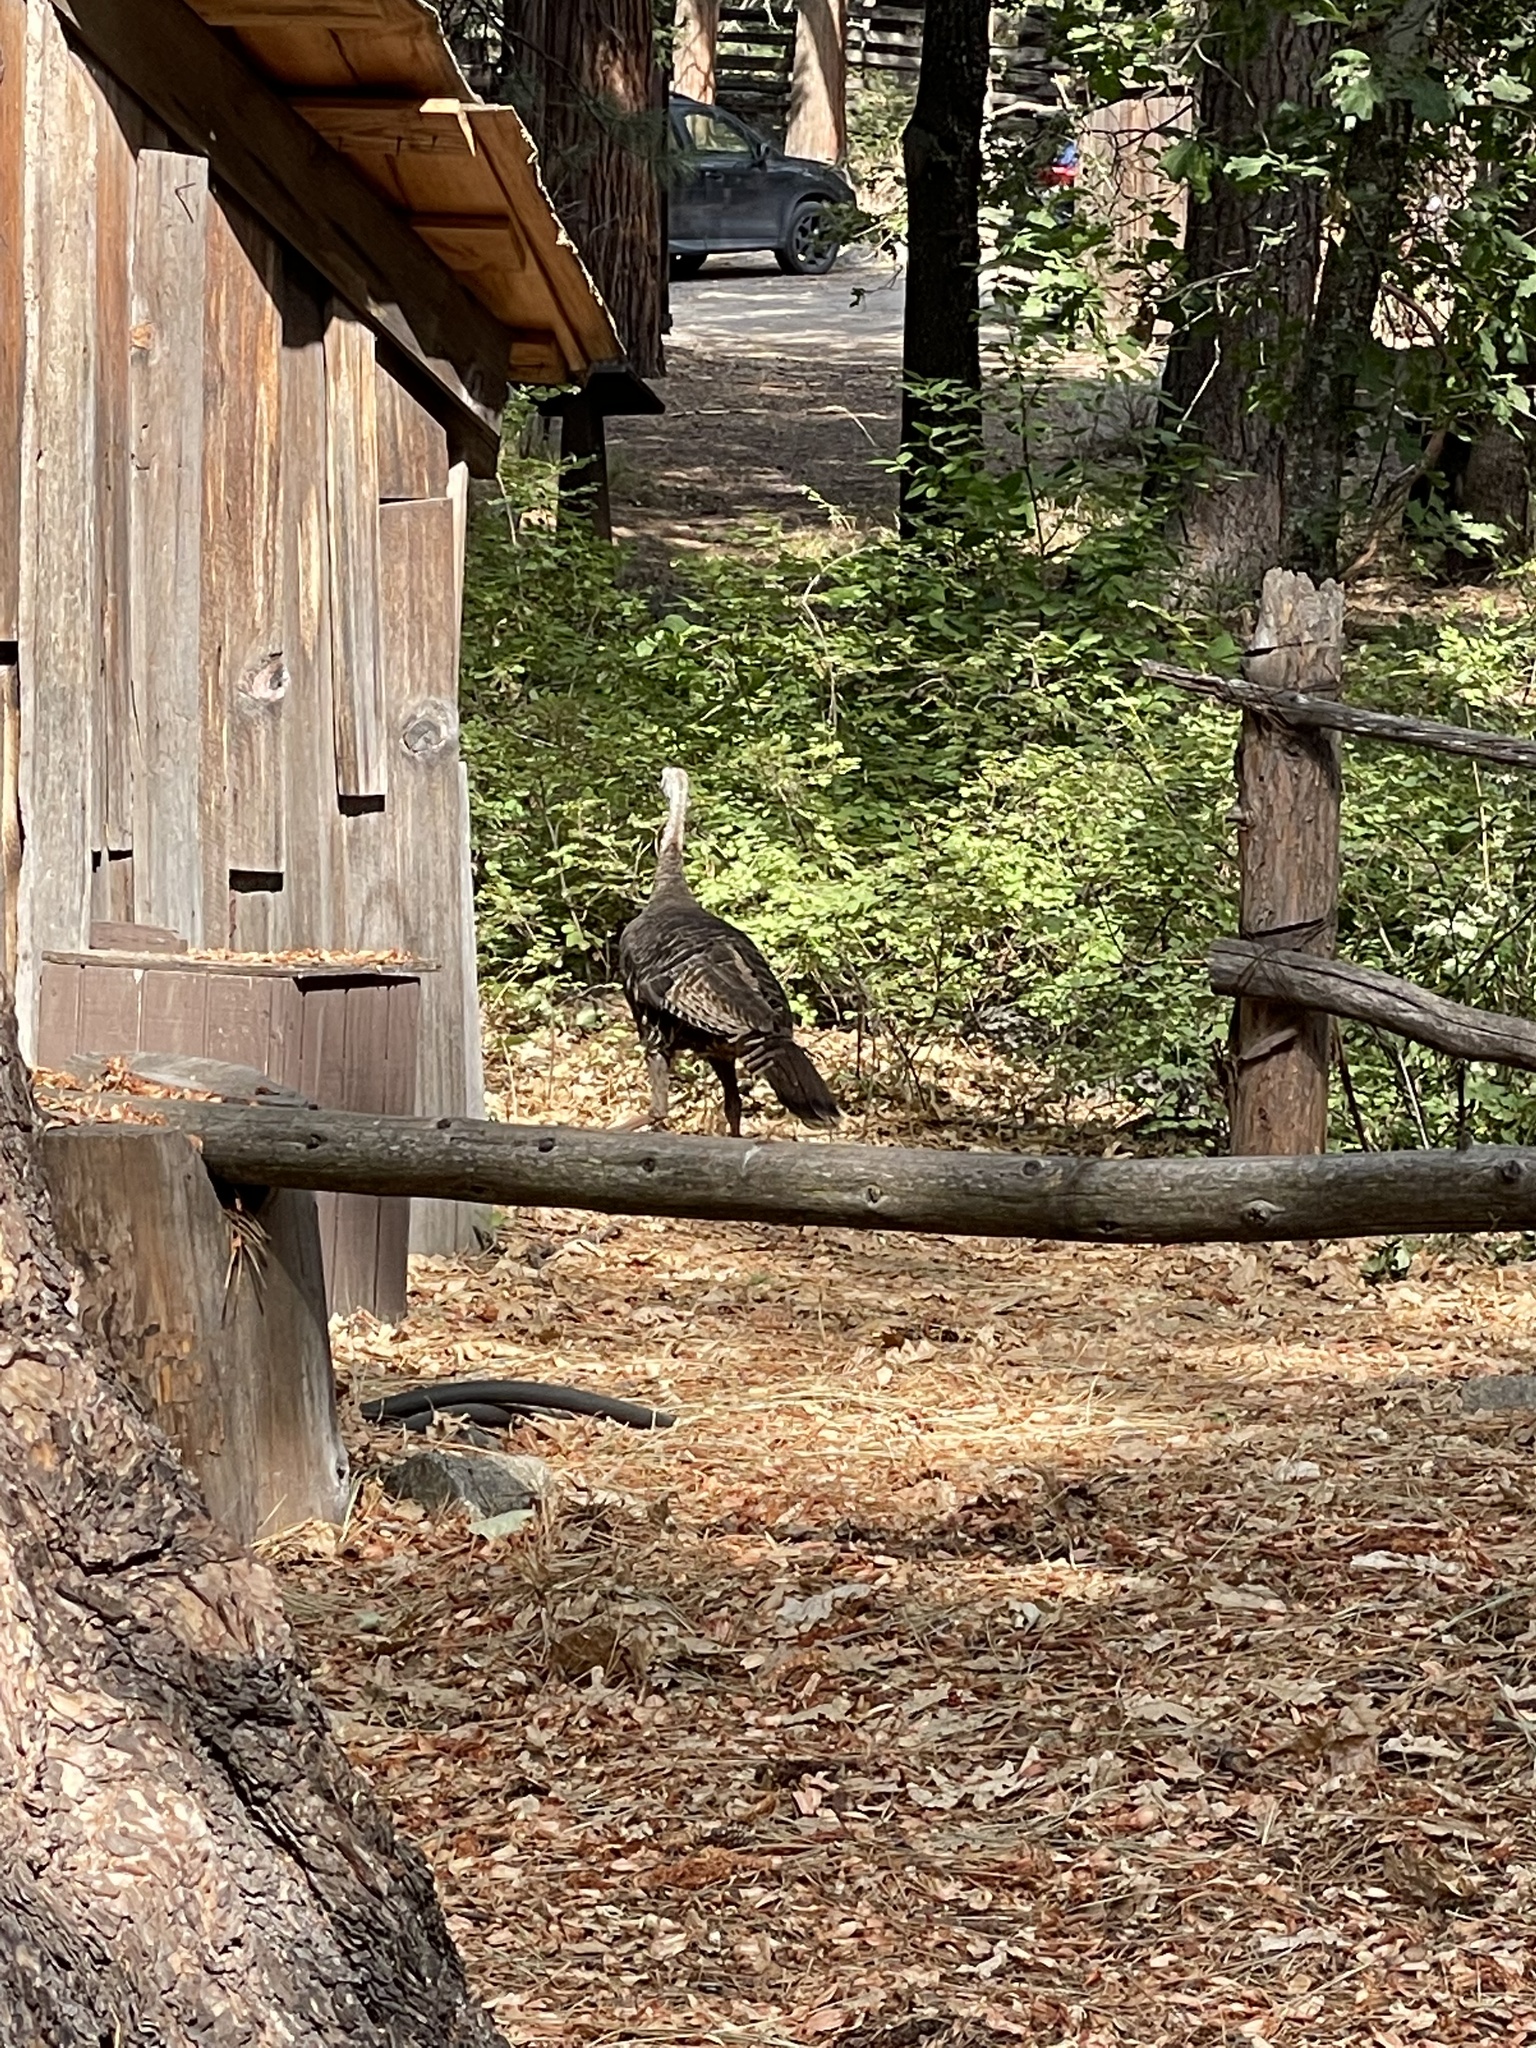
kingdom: Animalia
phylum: Chordata
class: Aves
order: Galliformes
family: Phasianidae
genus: Meleagris
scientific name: Meleagris gallopavo
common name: Wild turkey
